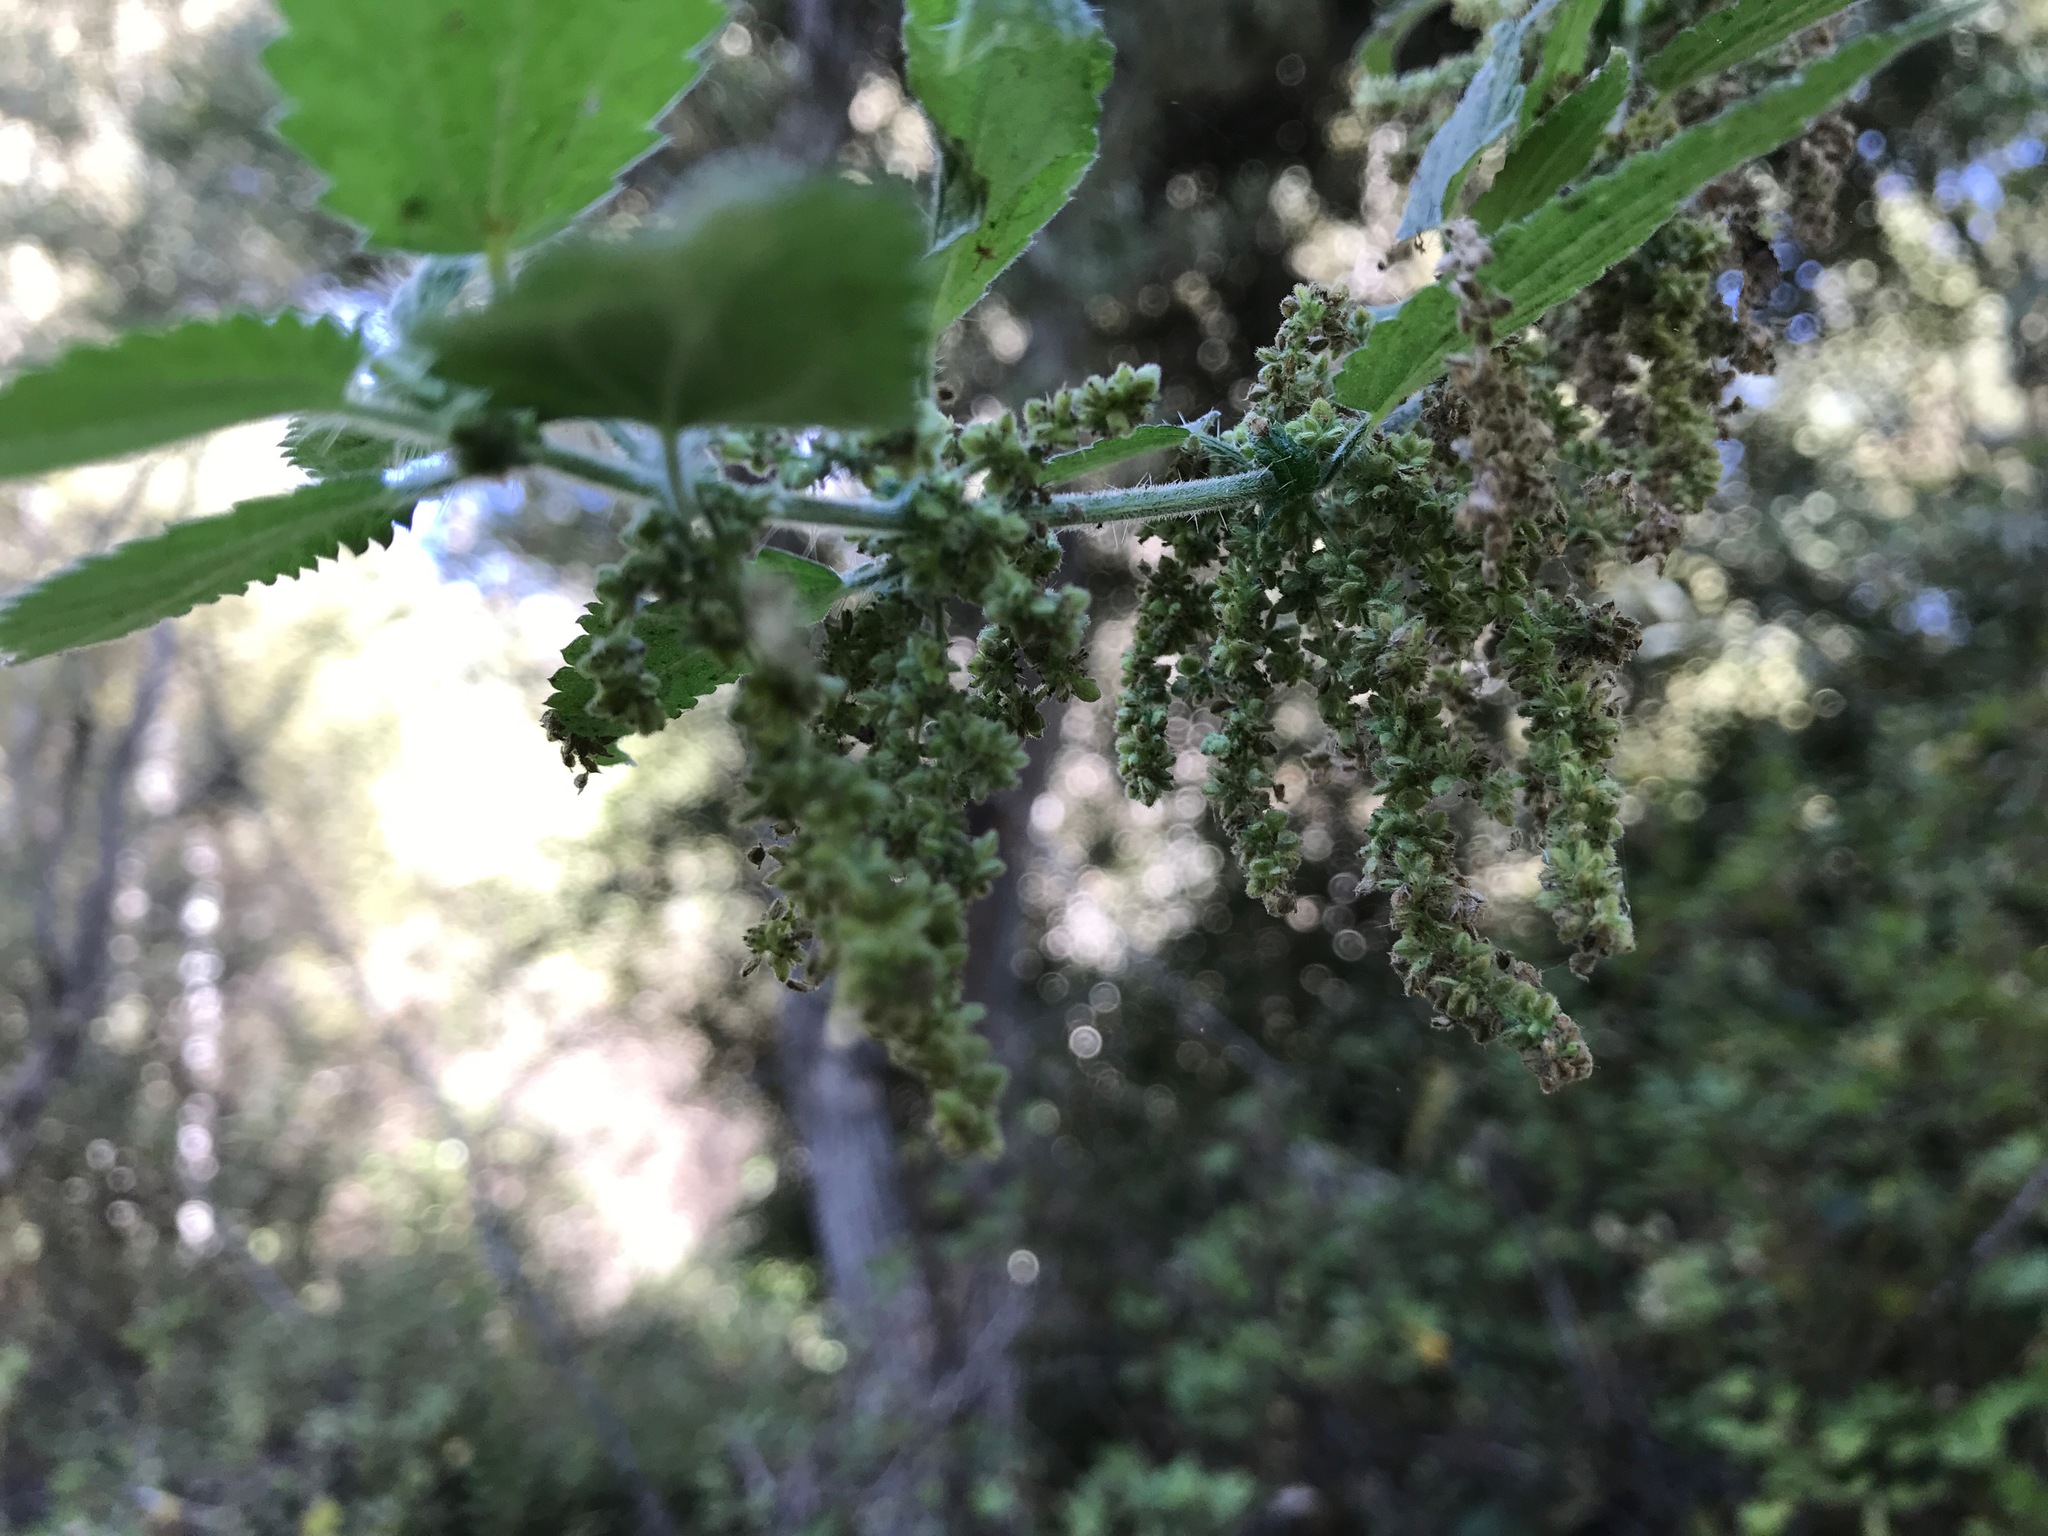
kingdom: Plantae
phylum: Tracheophyta
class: Magnoliopsida
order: Rosales
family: Urticaceae
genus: Urtica
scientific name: Urtica dioica
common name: Common nettle
